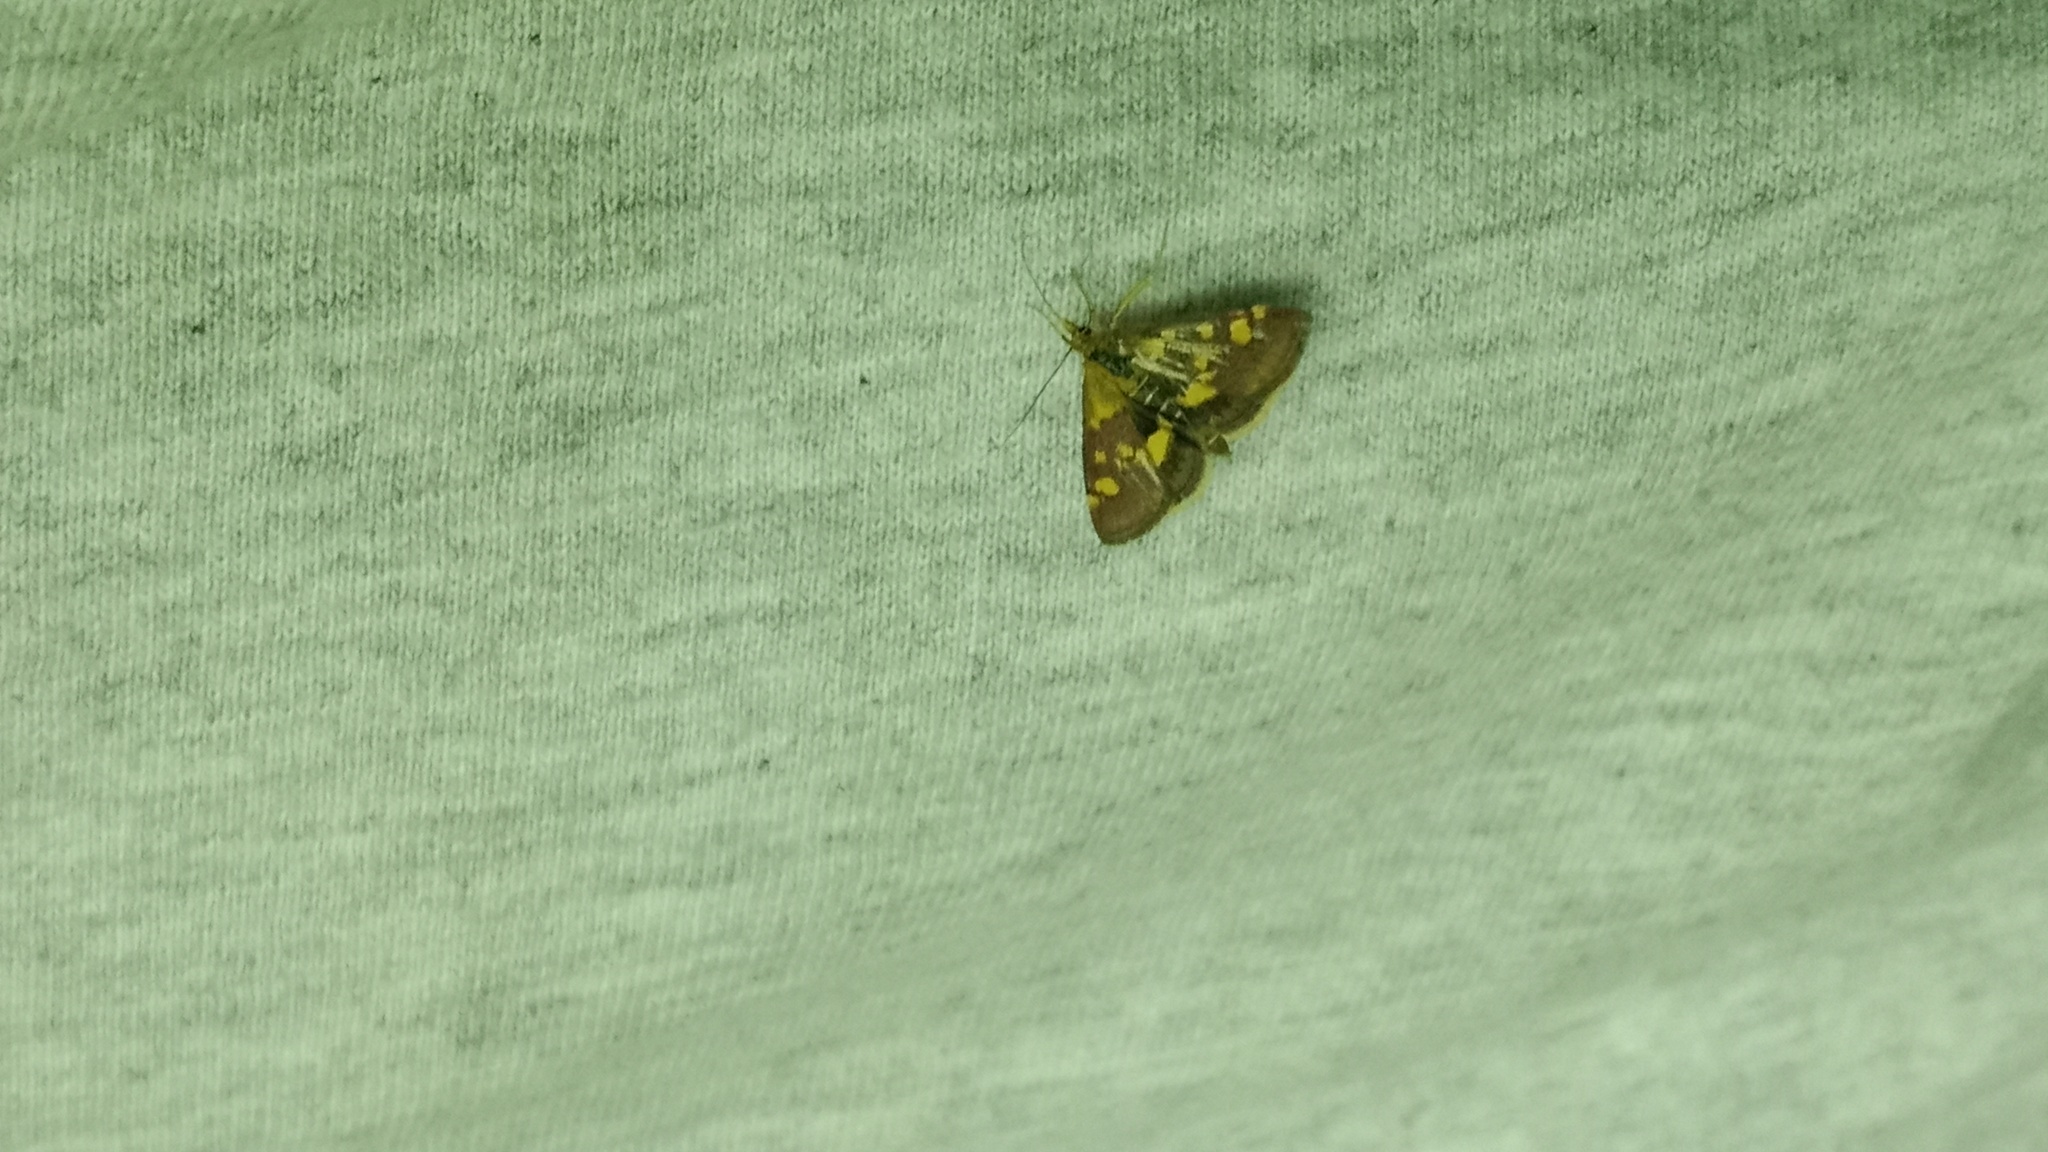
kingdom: Animalia
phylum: Arthropoda
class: Insecta
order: Lepidoptera
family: Crambidae
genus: Pyrausta
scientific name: Pyrausta aurata
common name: Small purple & gold
